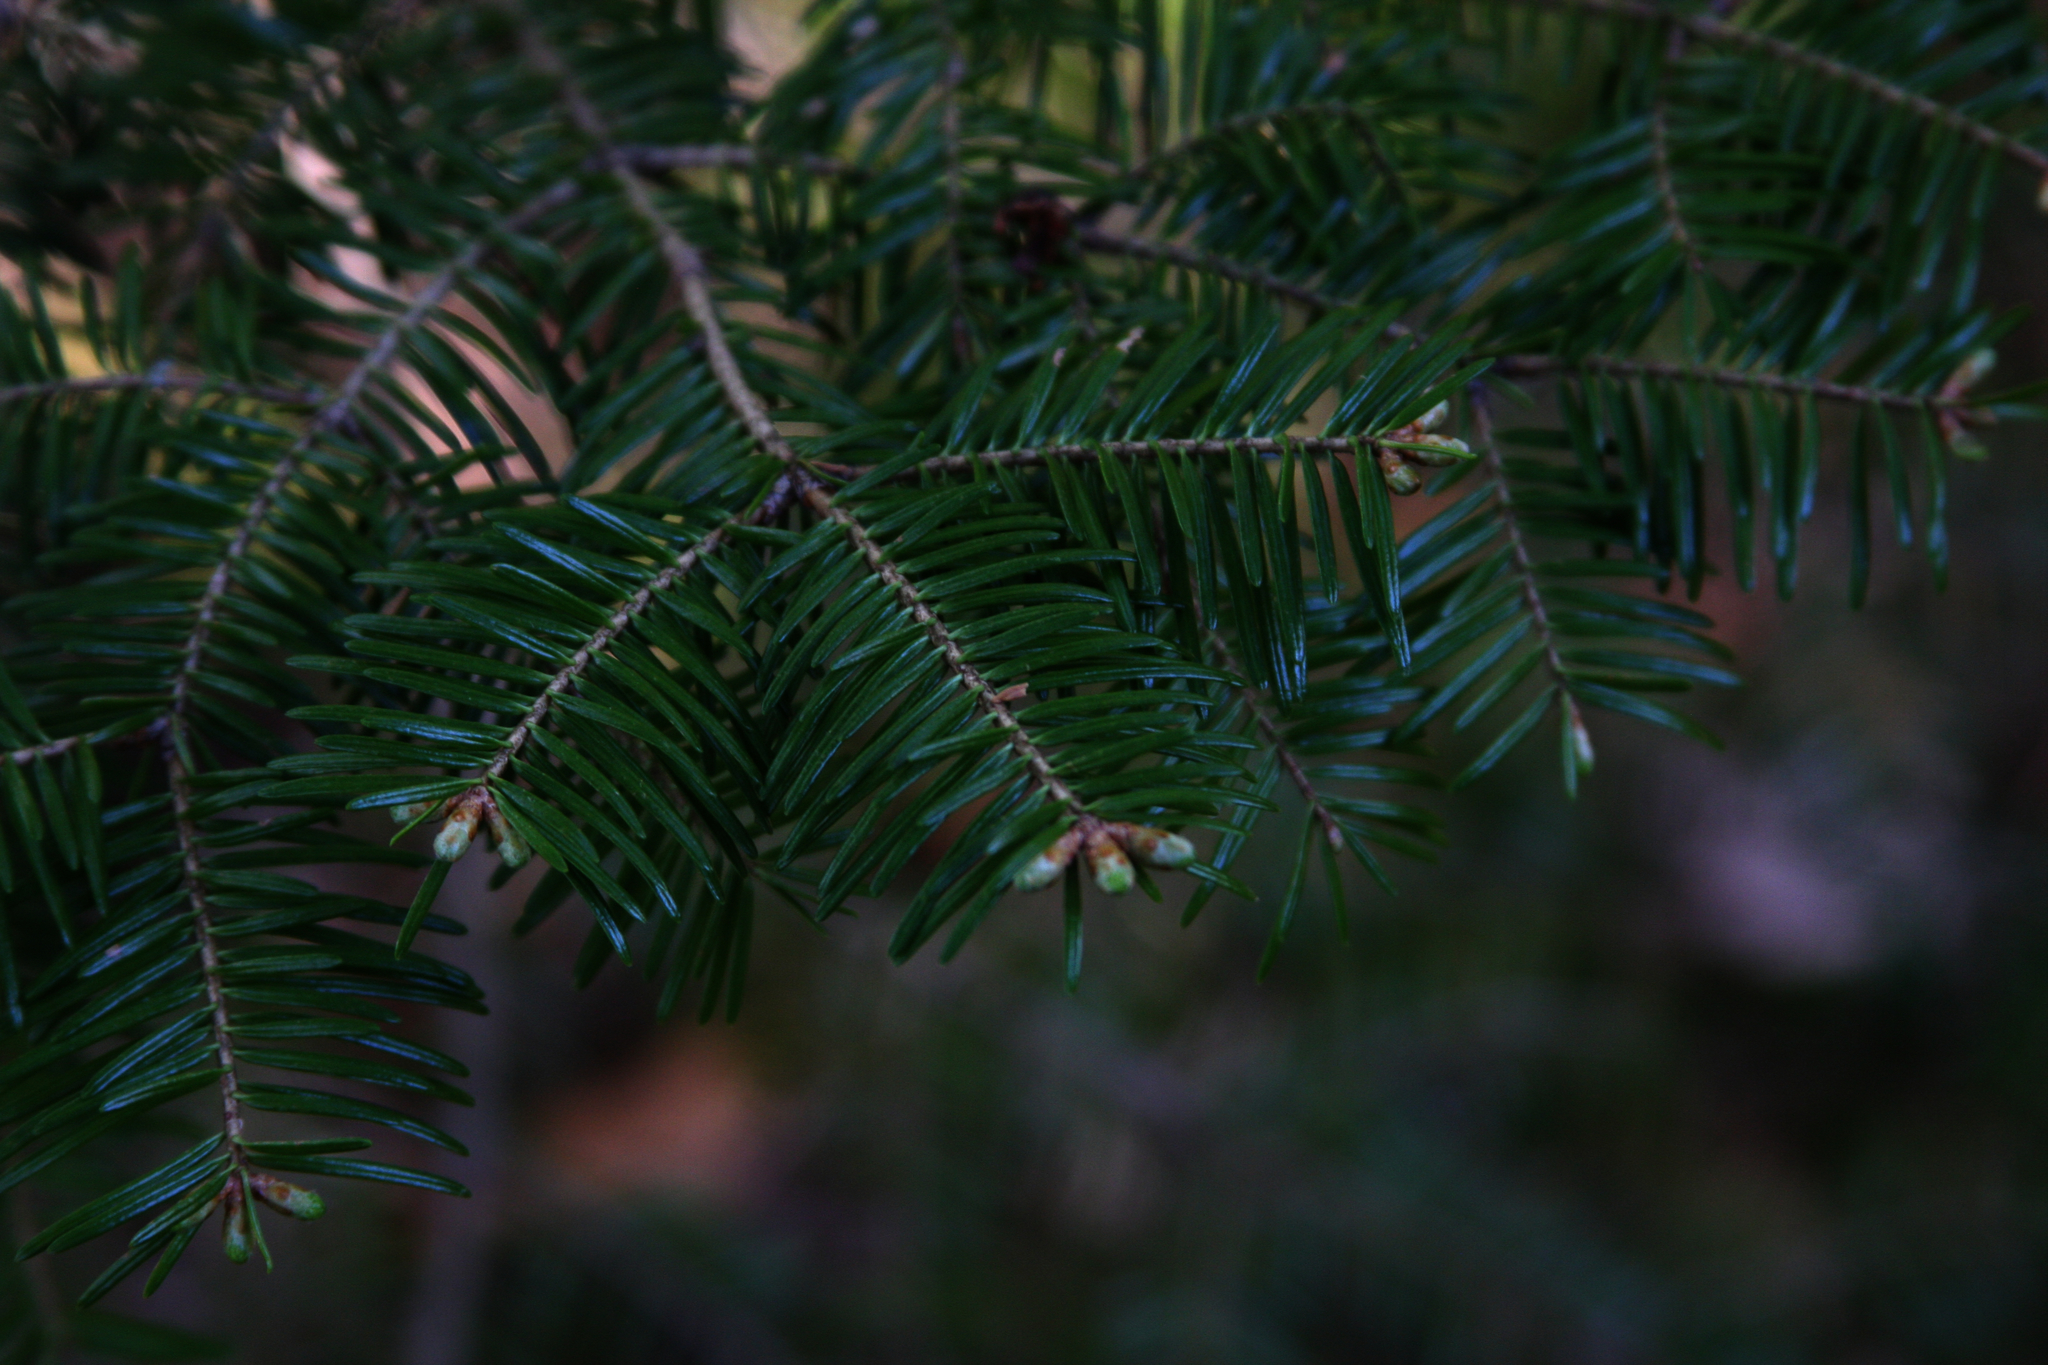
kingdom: Plantae
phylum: Tracheophyta
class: Pinopsida
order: Pinales
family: Pinaceae
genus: Abies
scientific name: Abies balsamea
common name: Balsam fir
